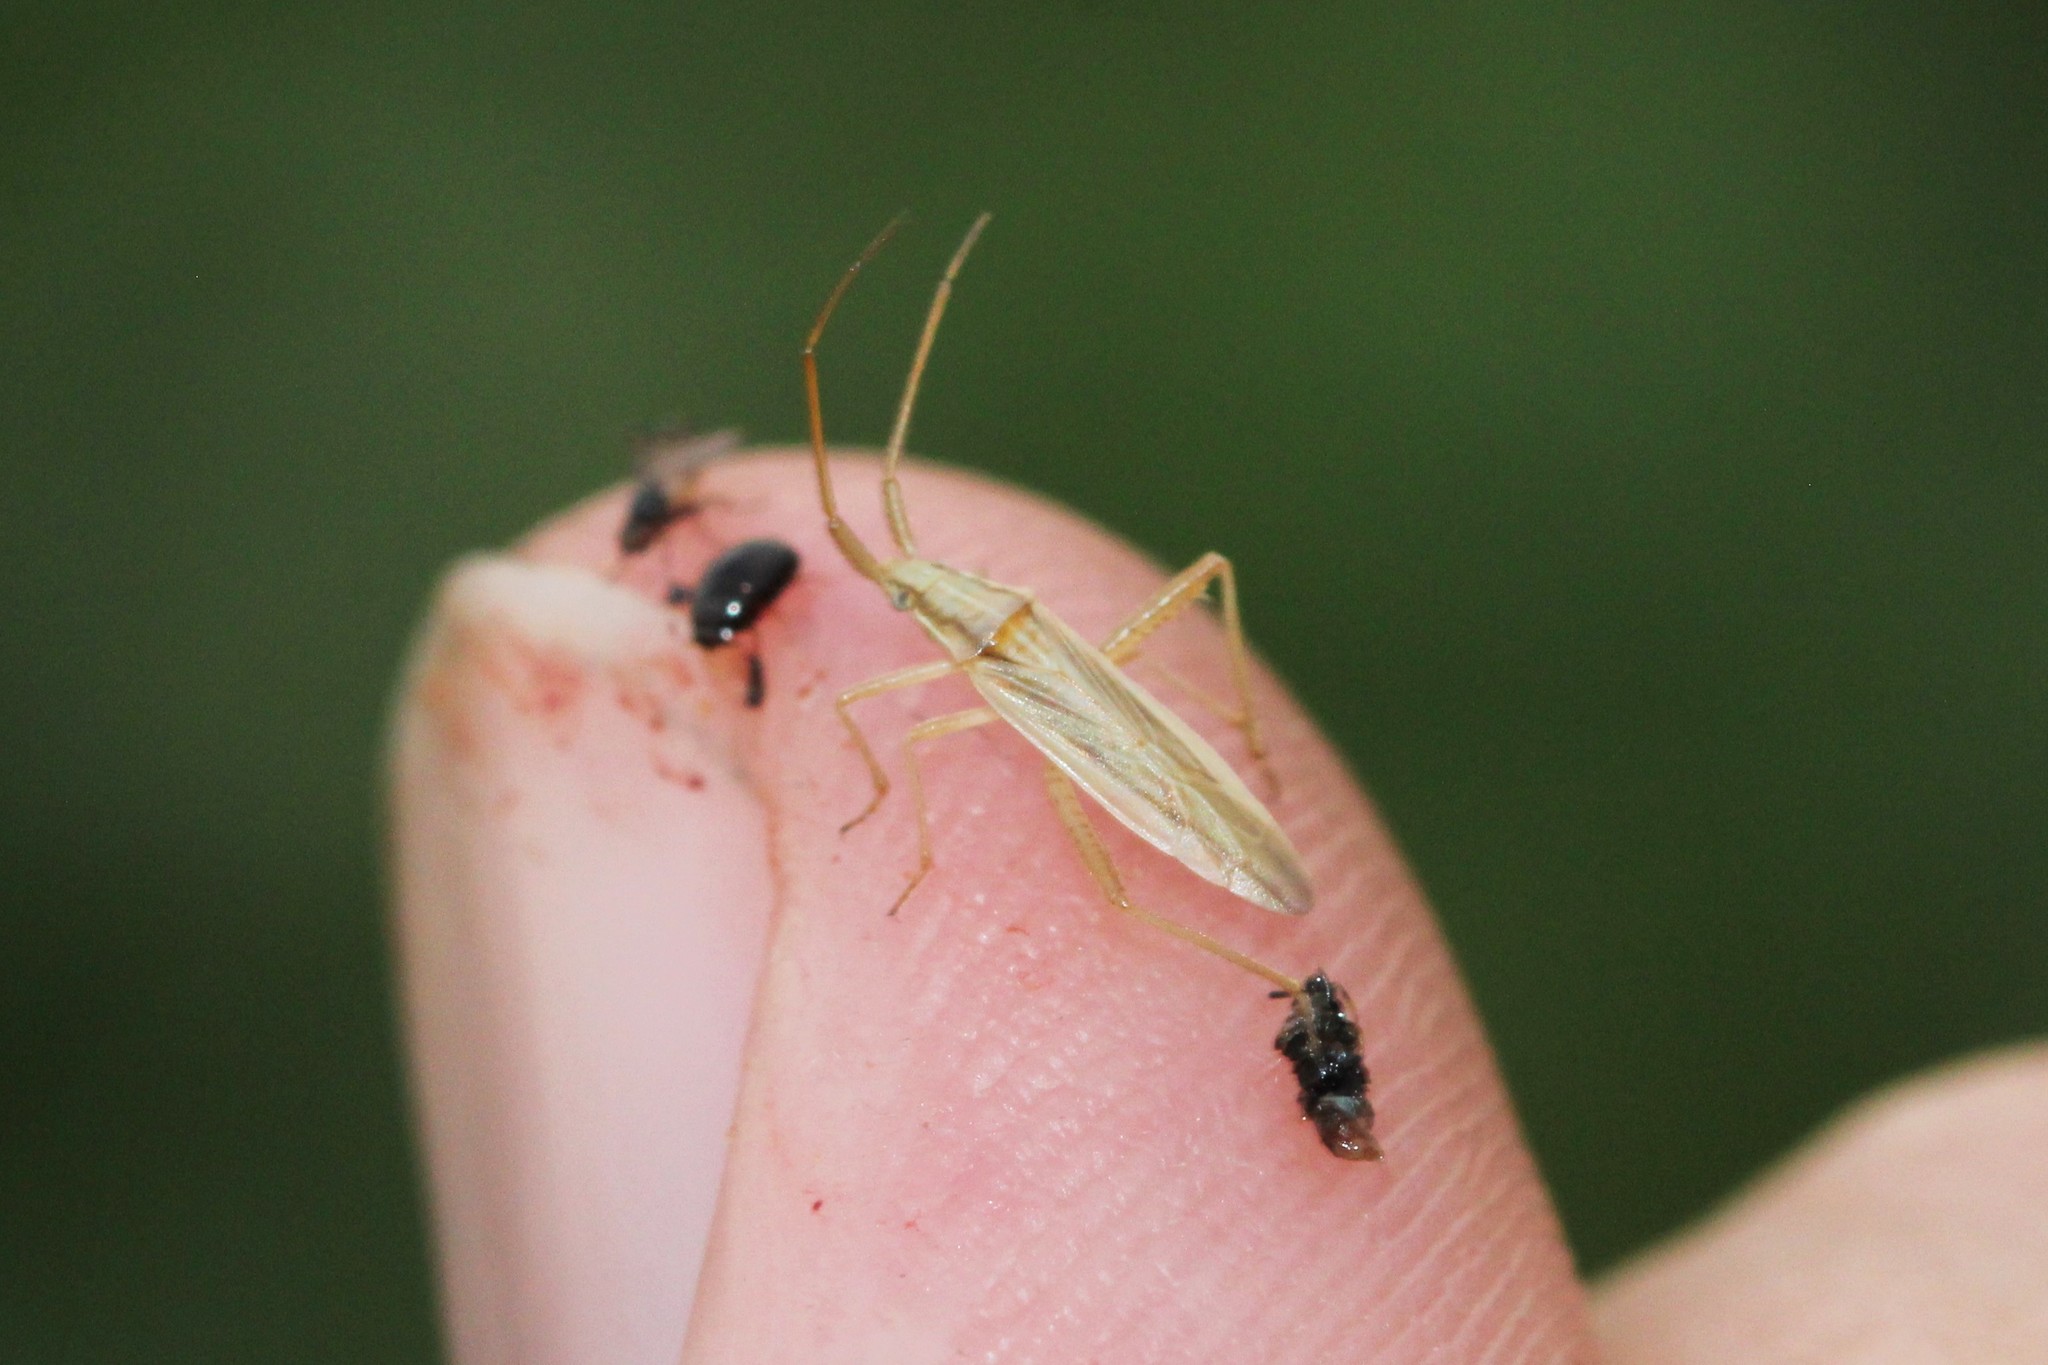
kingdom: Animalia
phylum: Arthropoda
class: Insecta
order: Hemiptera
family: Miridae
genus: Stenodema
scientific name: Stenodema trispinosa
